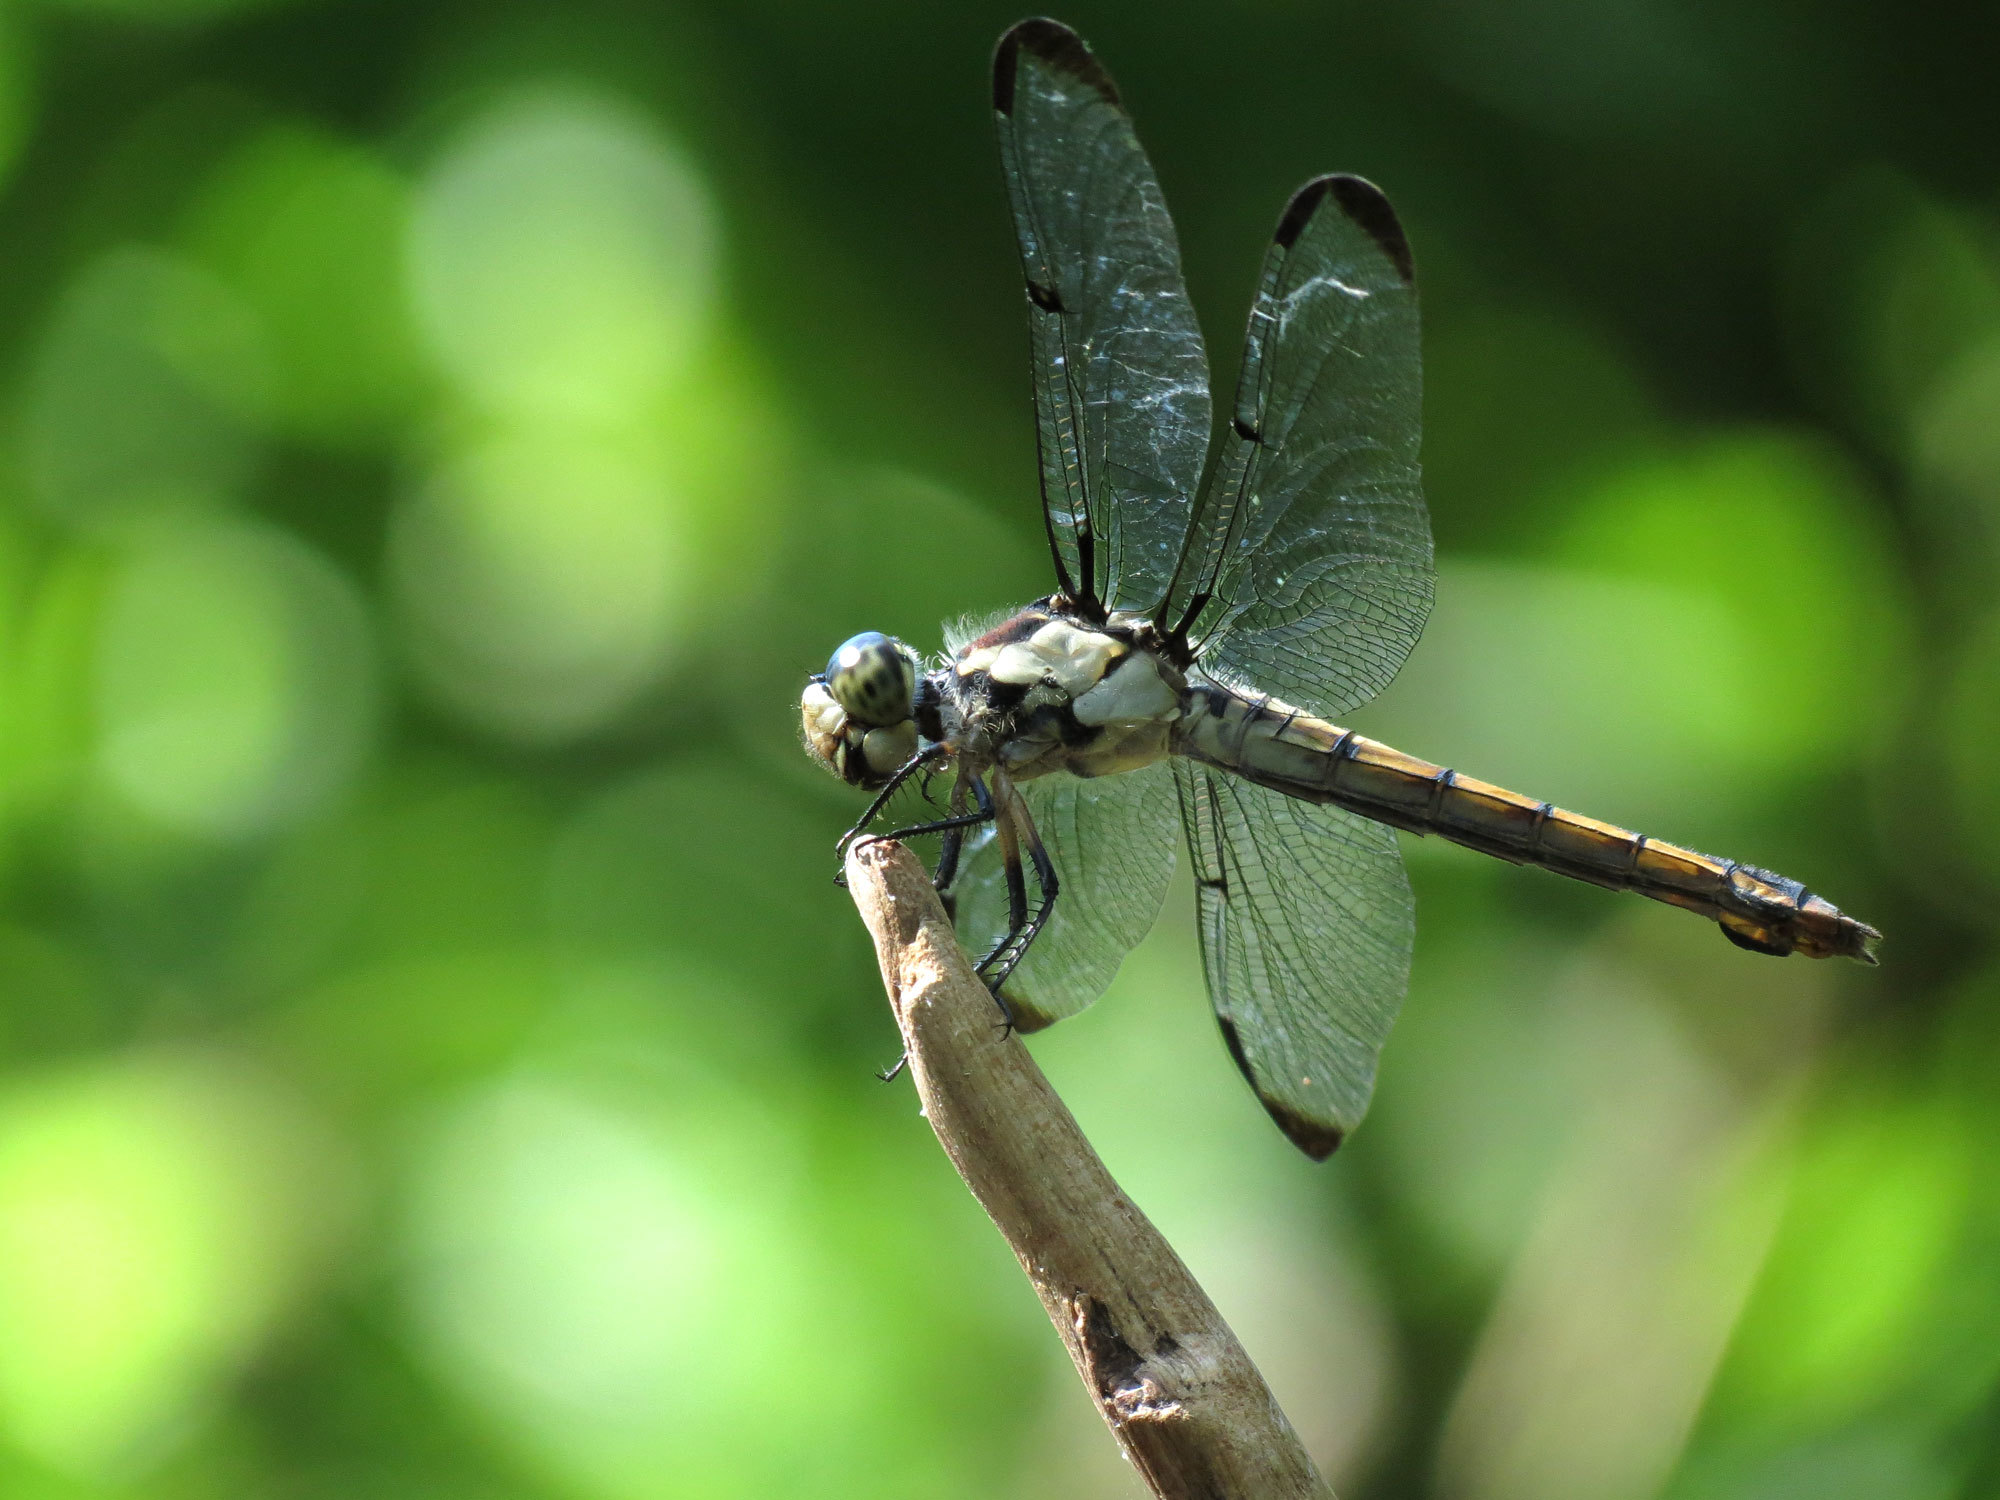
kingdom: Animalia
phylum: Arthropoda
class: Insecta
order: Odonata
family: Libellulidae
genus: Libellula
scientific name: Libellula vibrans
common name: Great blue skimmer
